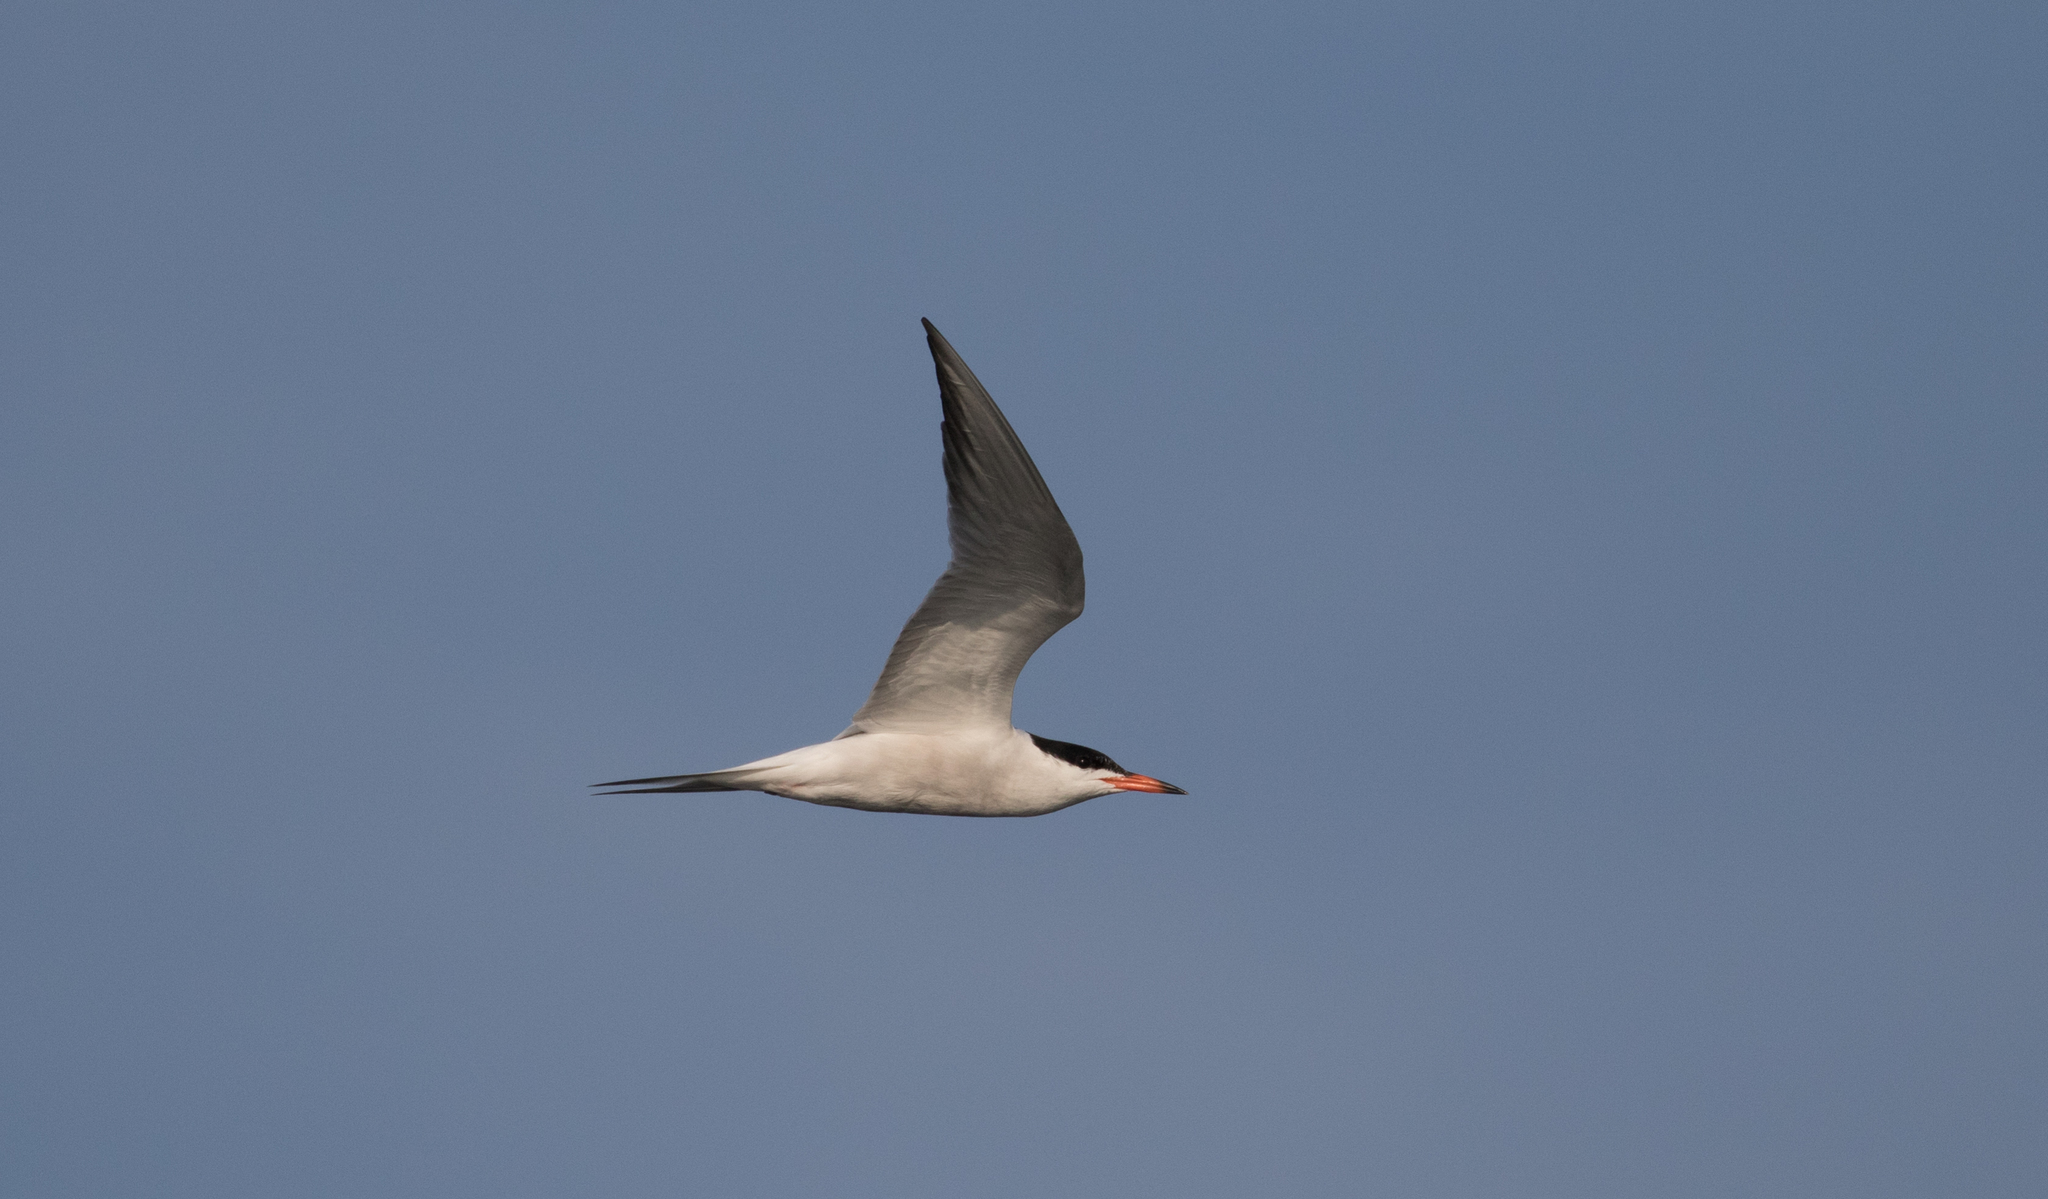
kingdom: Animalia
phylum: Chordata
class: Aves
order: Charadriiformes
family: Laridae
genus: Sterna
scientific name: Sterna hirundo
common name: Common tern
